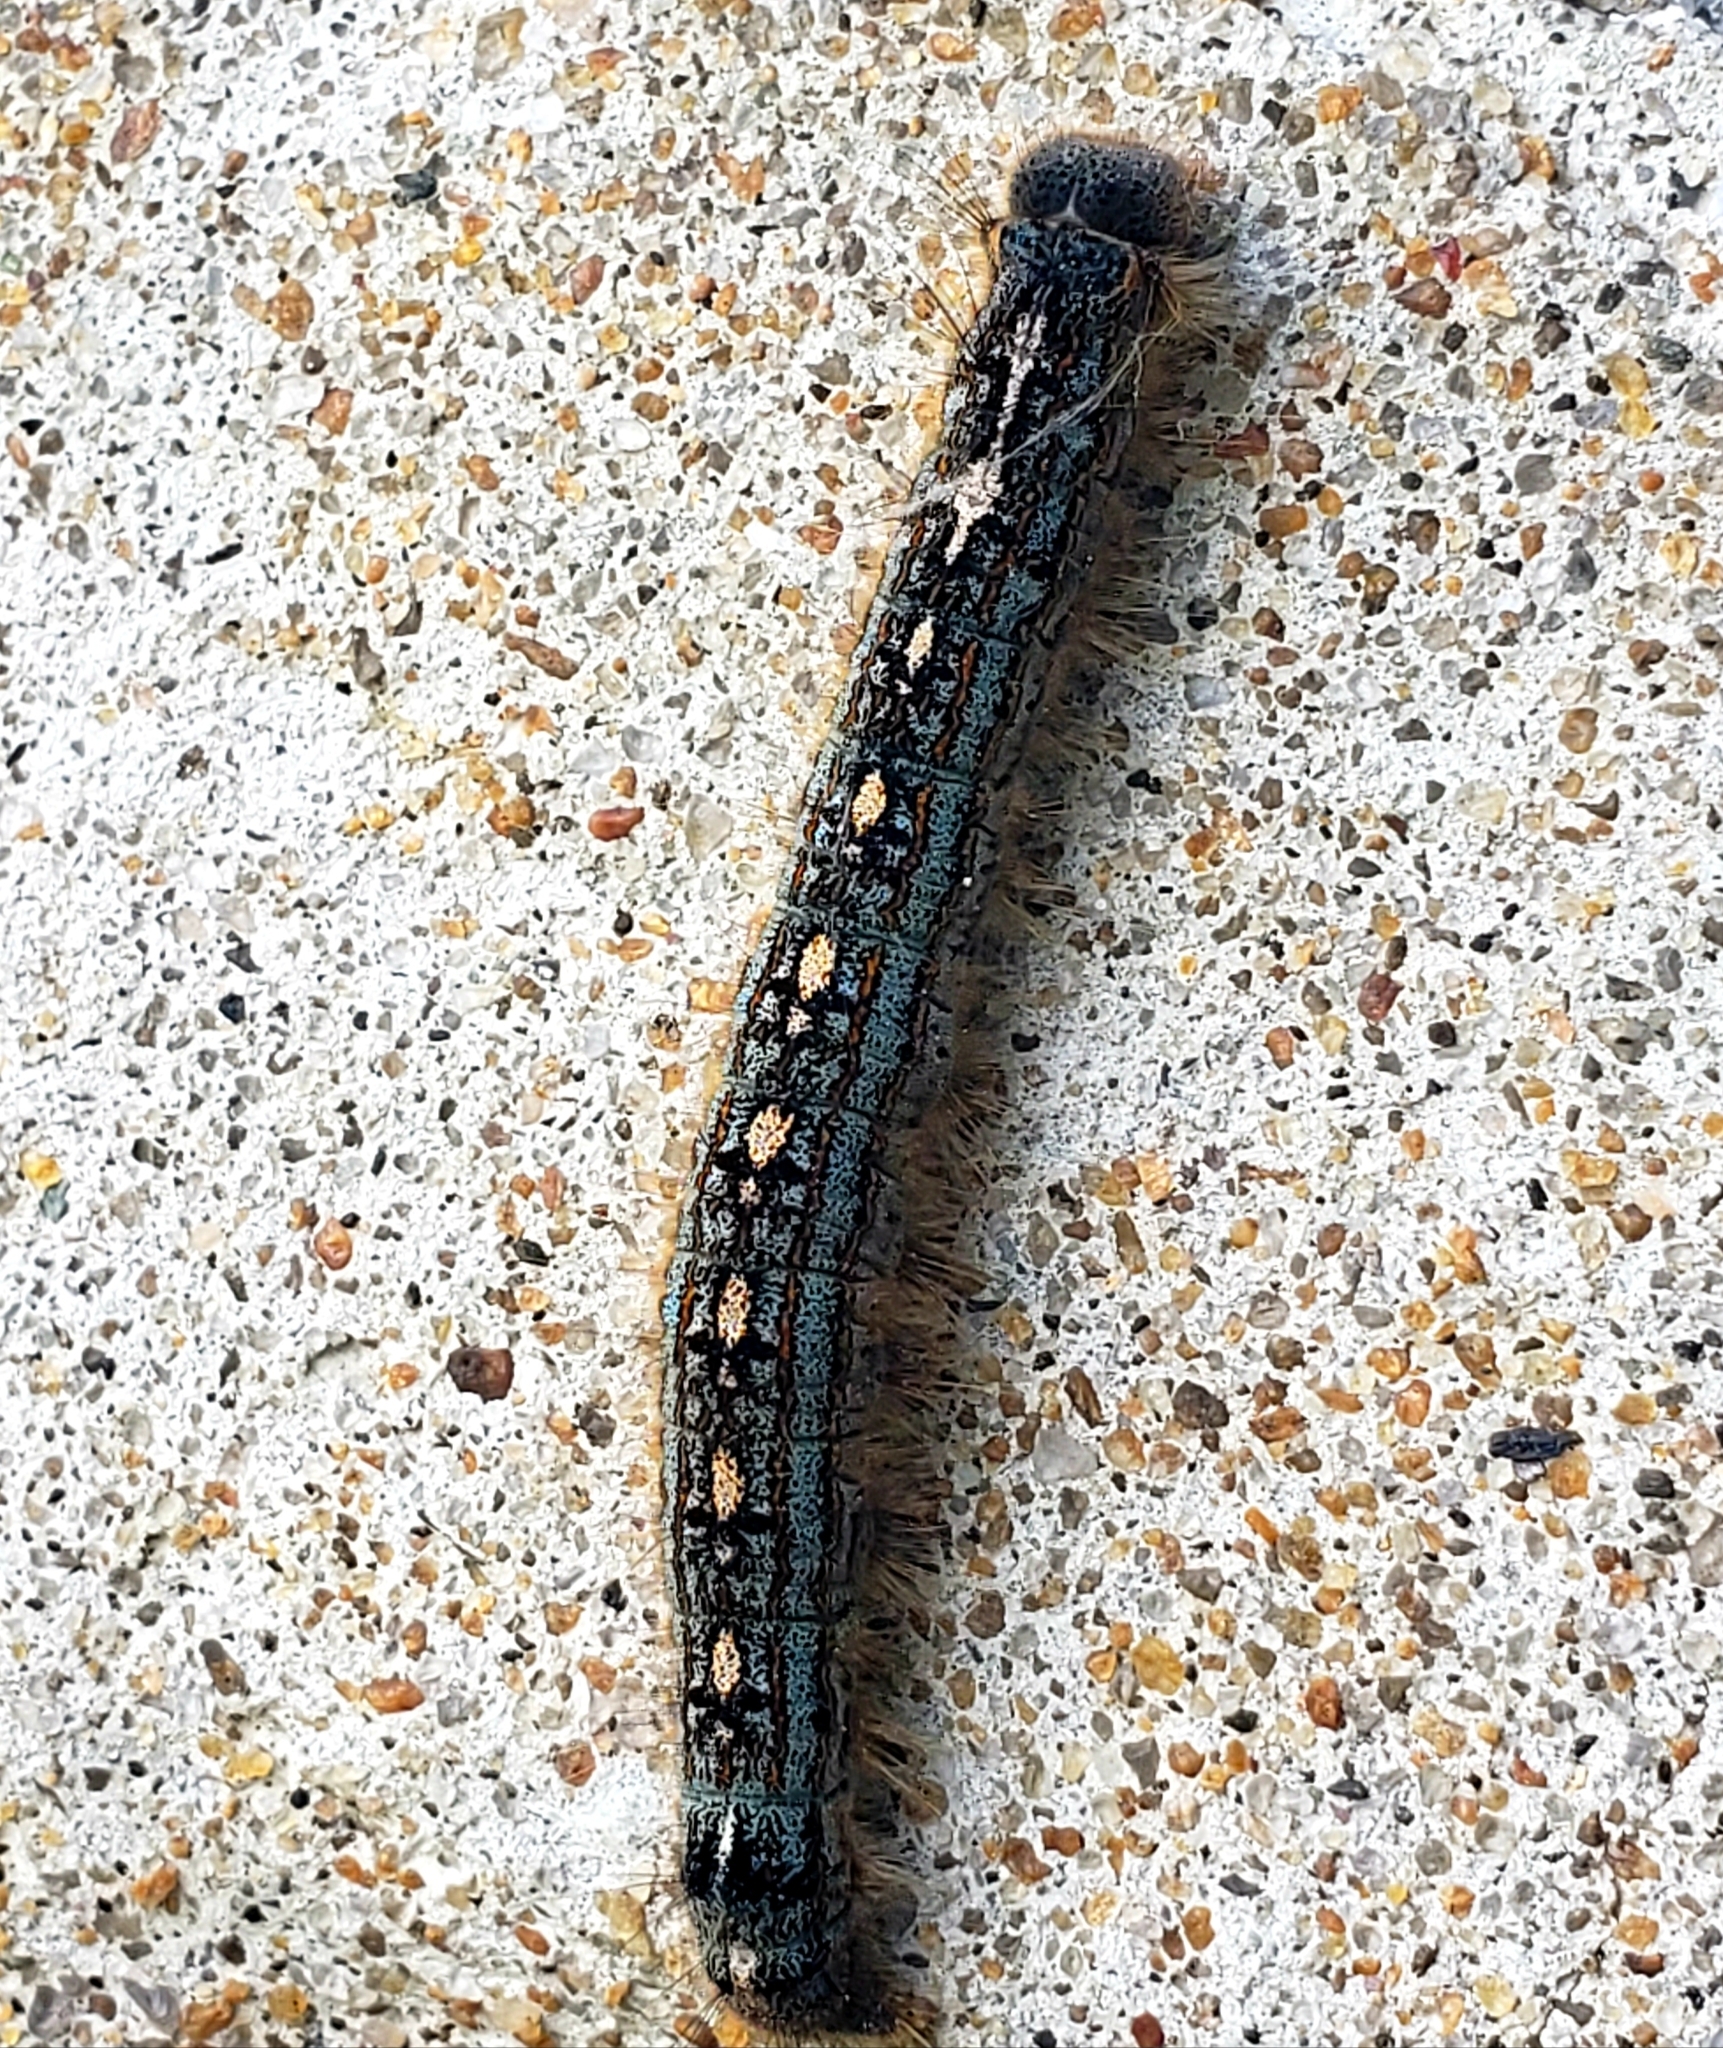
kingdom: Animalia
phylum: Arthropoda
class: Insecta
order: Lepidoptera
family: Lasiocampidae
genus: Malacosoma
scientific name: Malacosoma disstria
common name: Forest tent caterpillar
